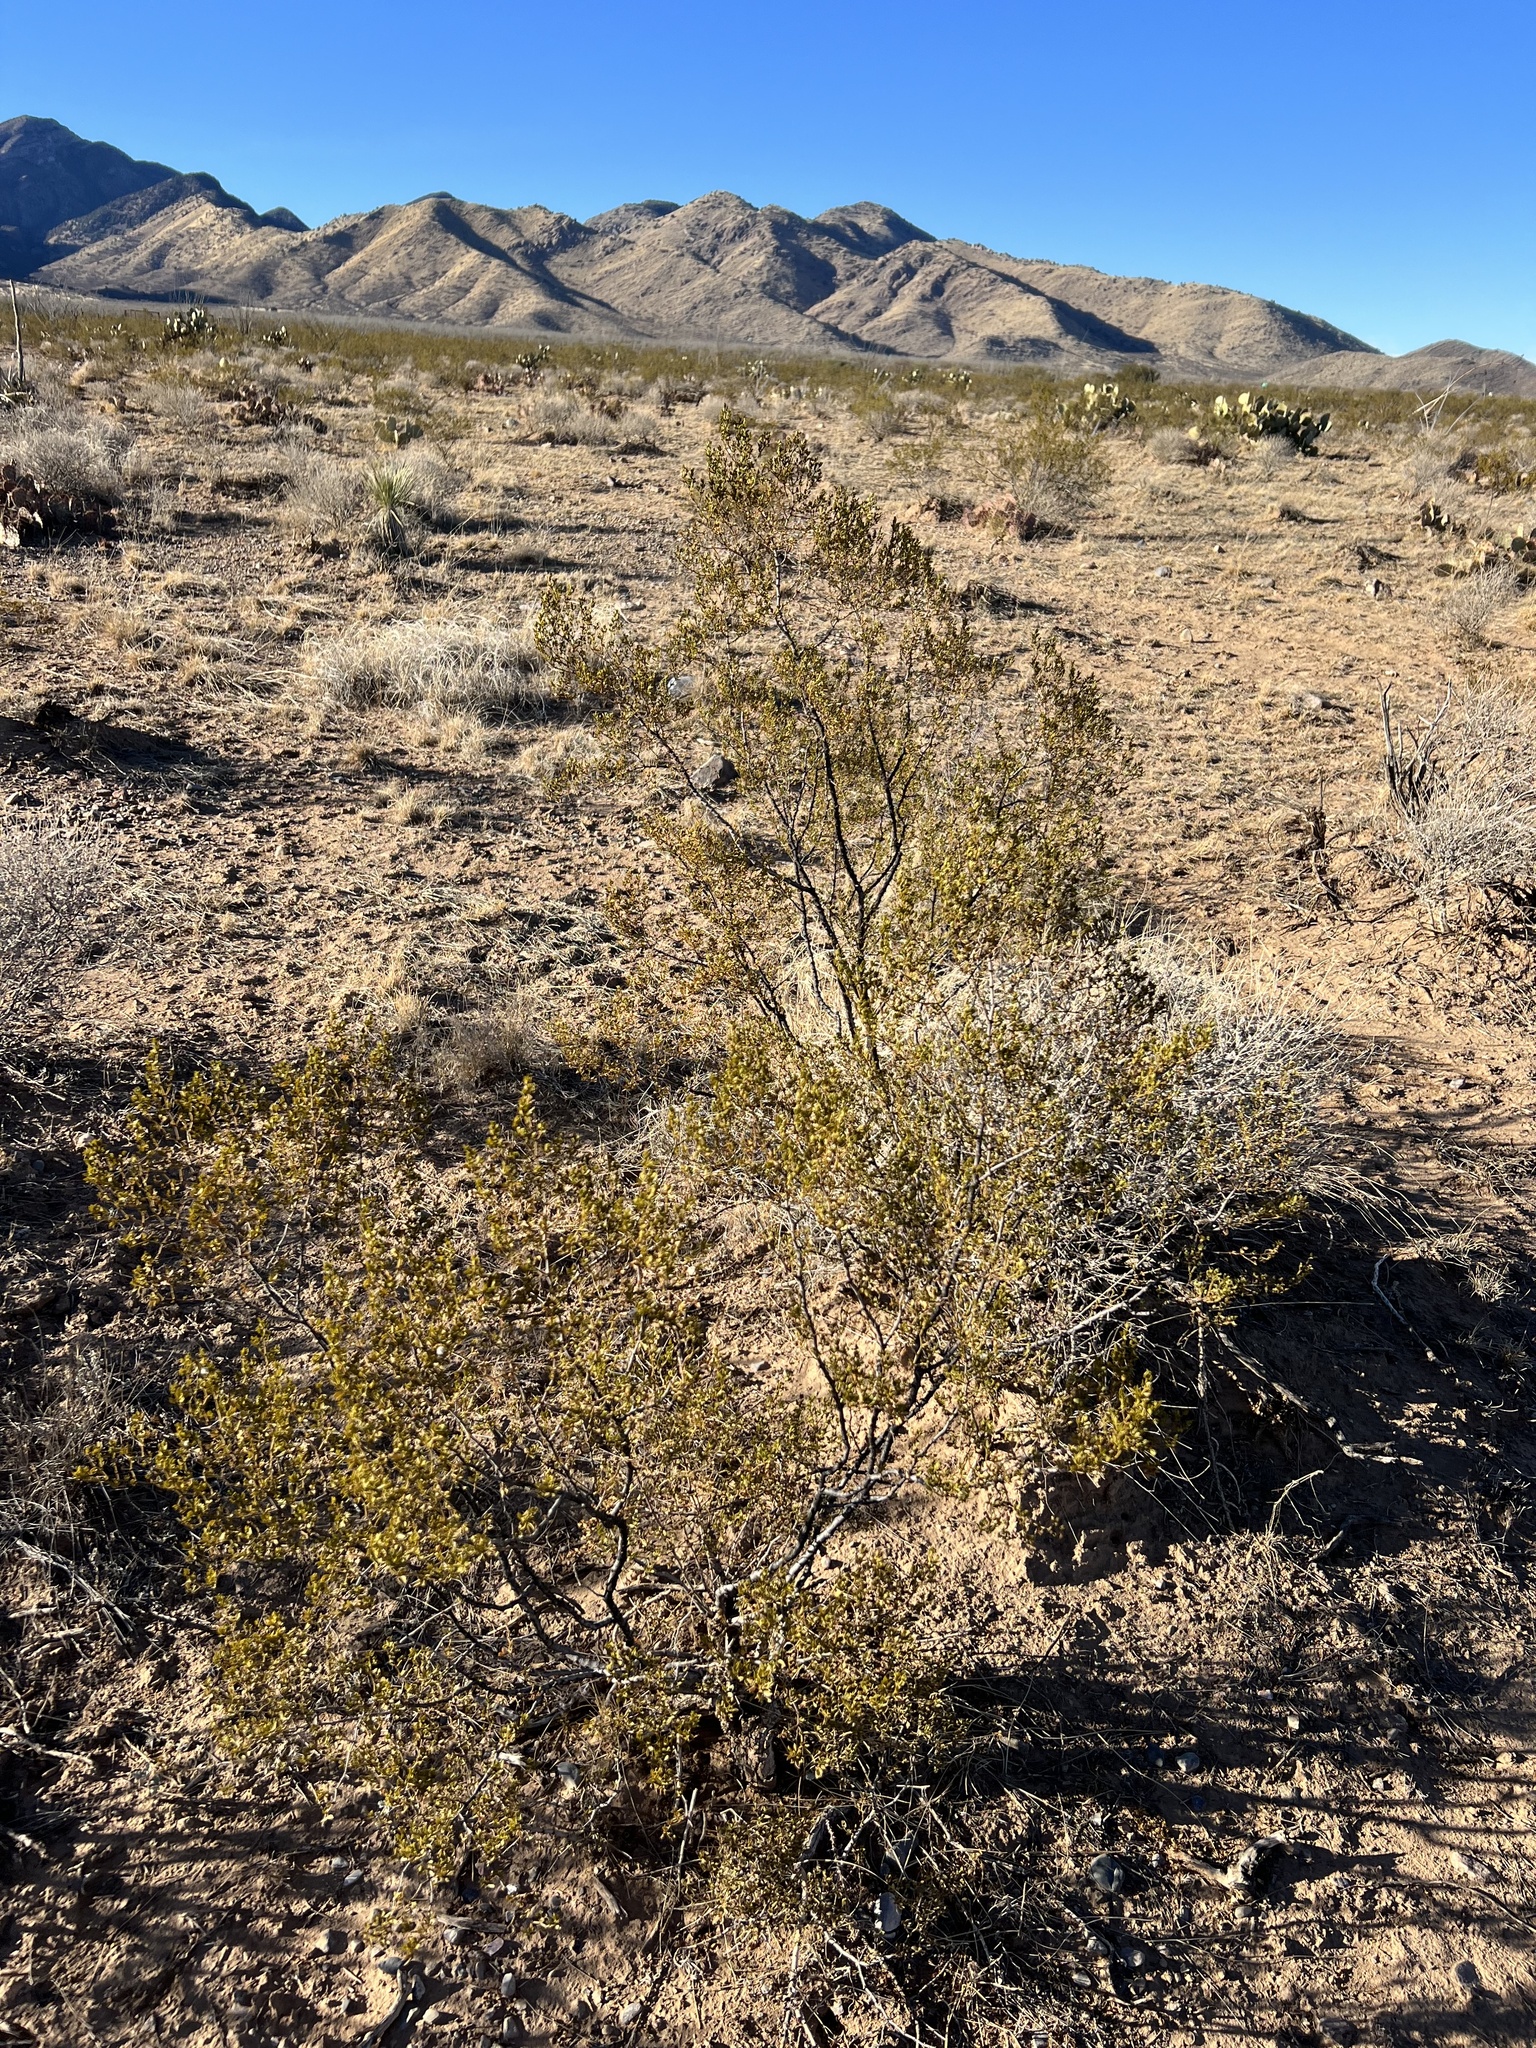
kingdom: Plantae
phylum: Tracheophyta
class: Magnoliopsida
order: Zygophyllales
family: Zygophyllaceae
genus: Larrea
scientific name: Larrea tridentata
